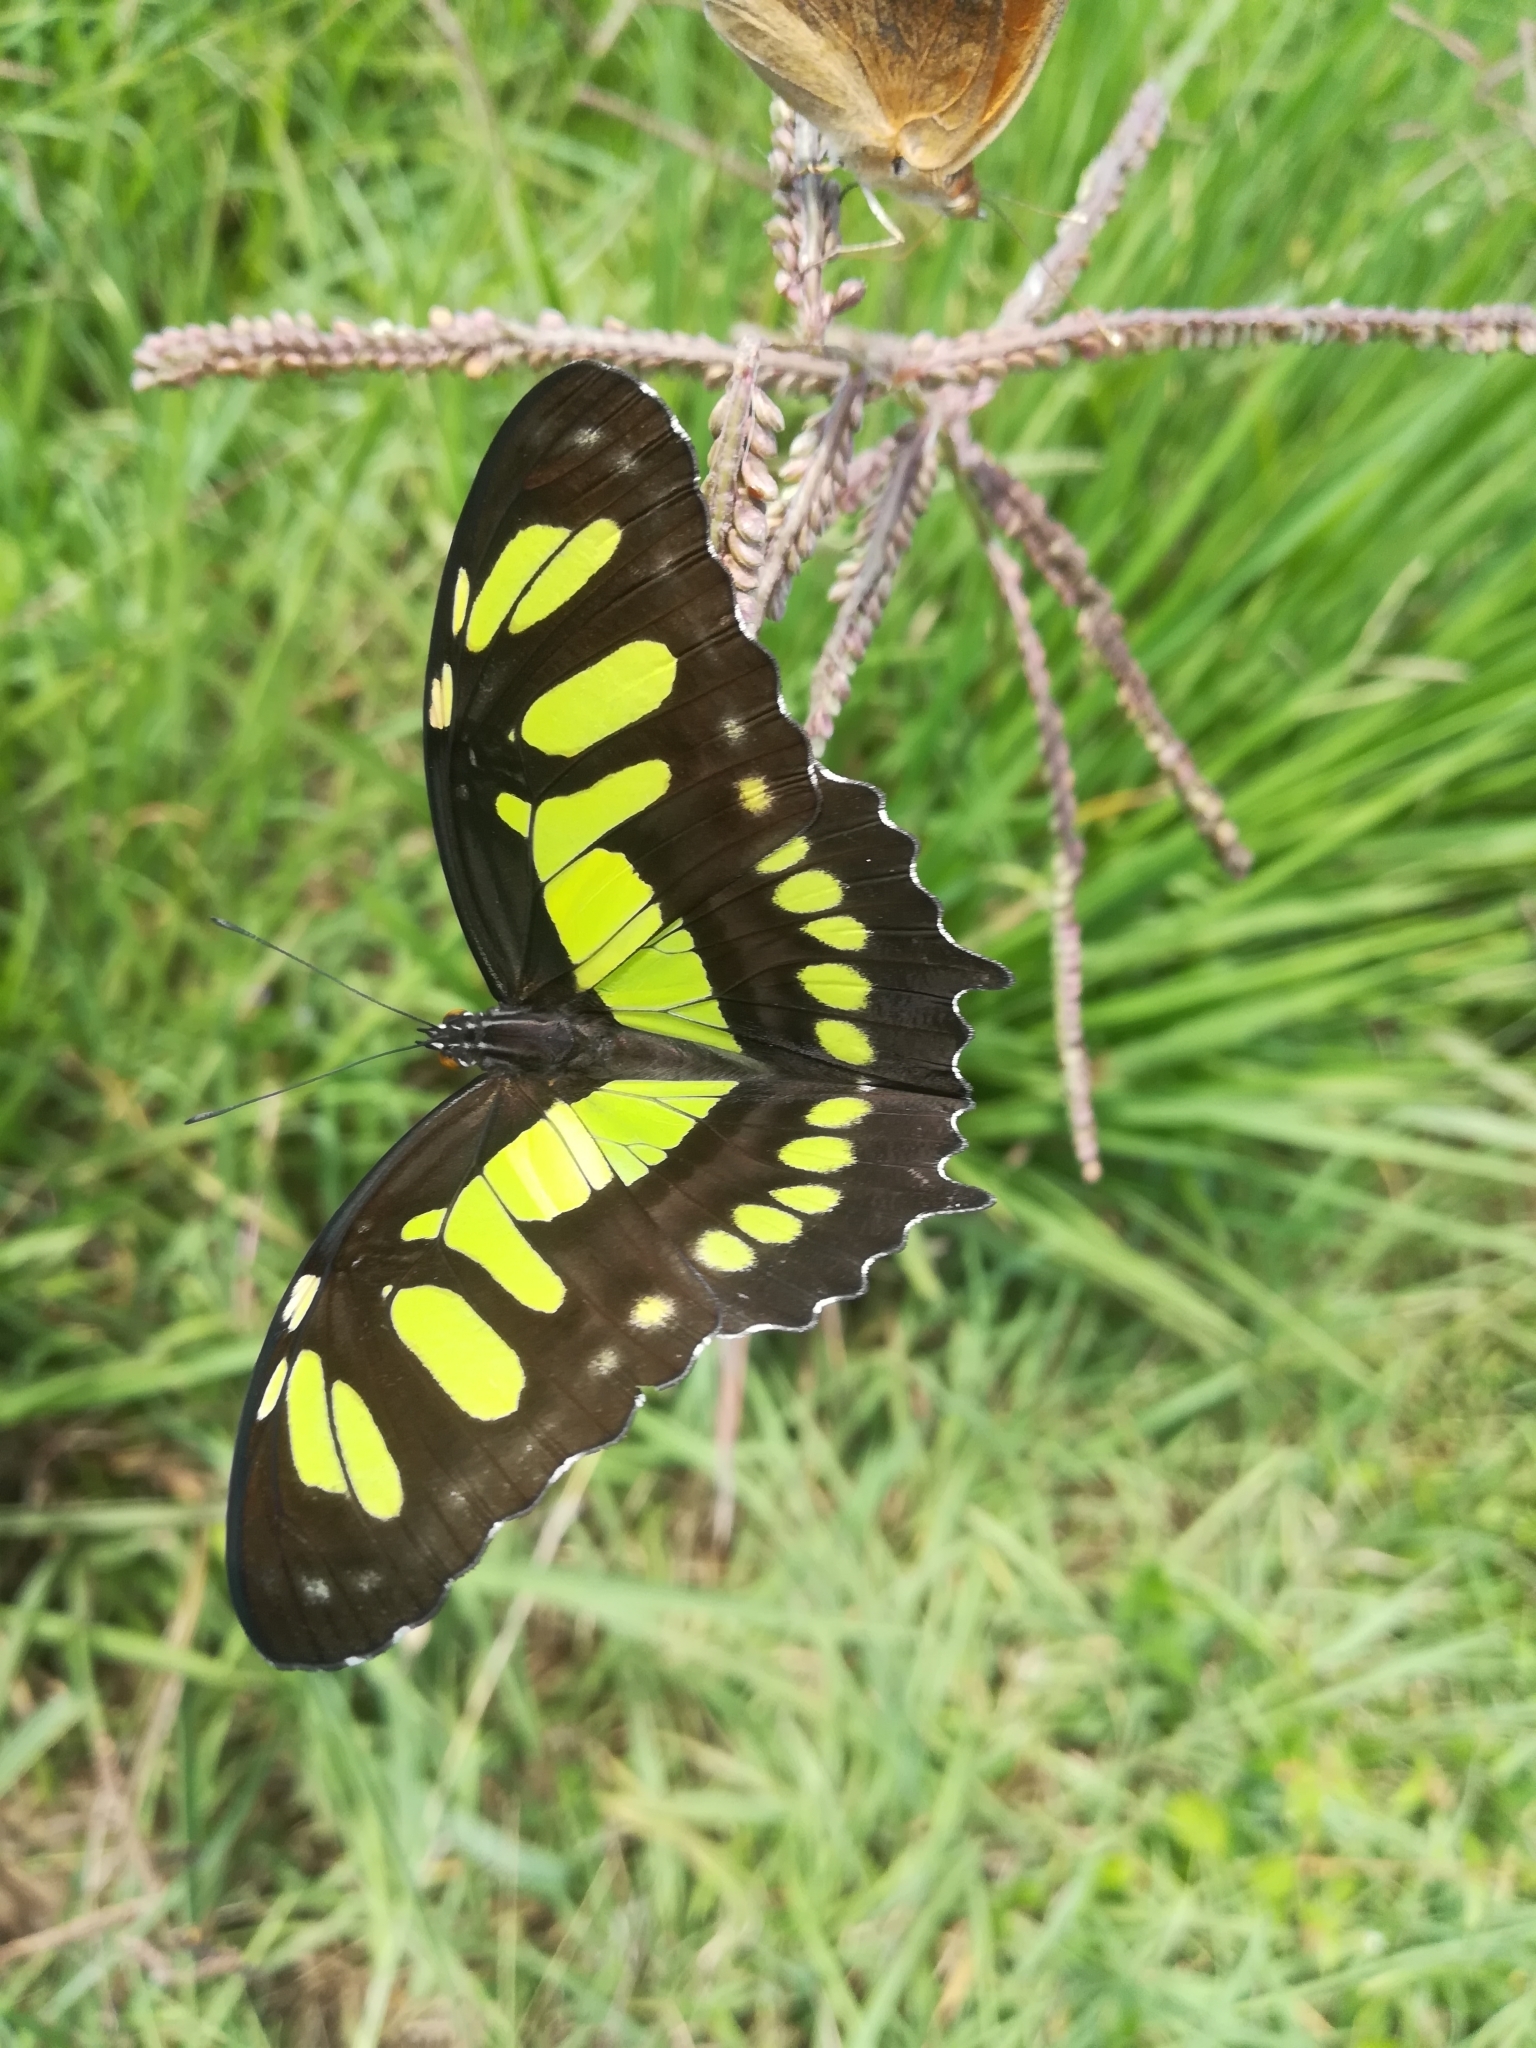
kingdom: Animalia
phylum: Arthropoda
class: Insecta
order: Lepidoptera
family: Nymphalidae
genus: Siproeta
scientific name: Siproeta stelenes
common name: Malachite
